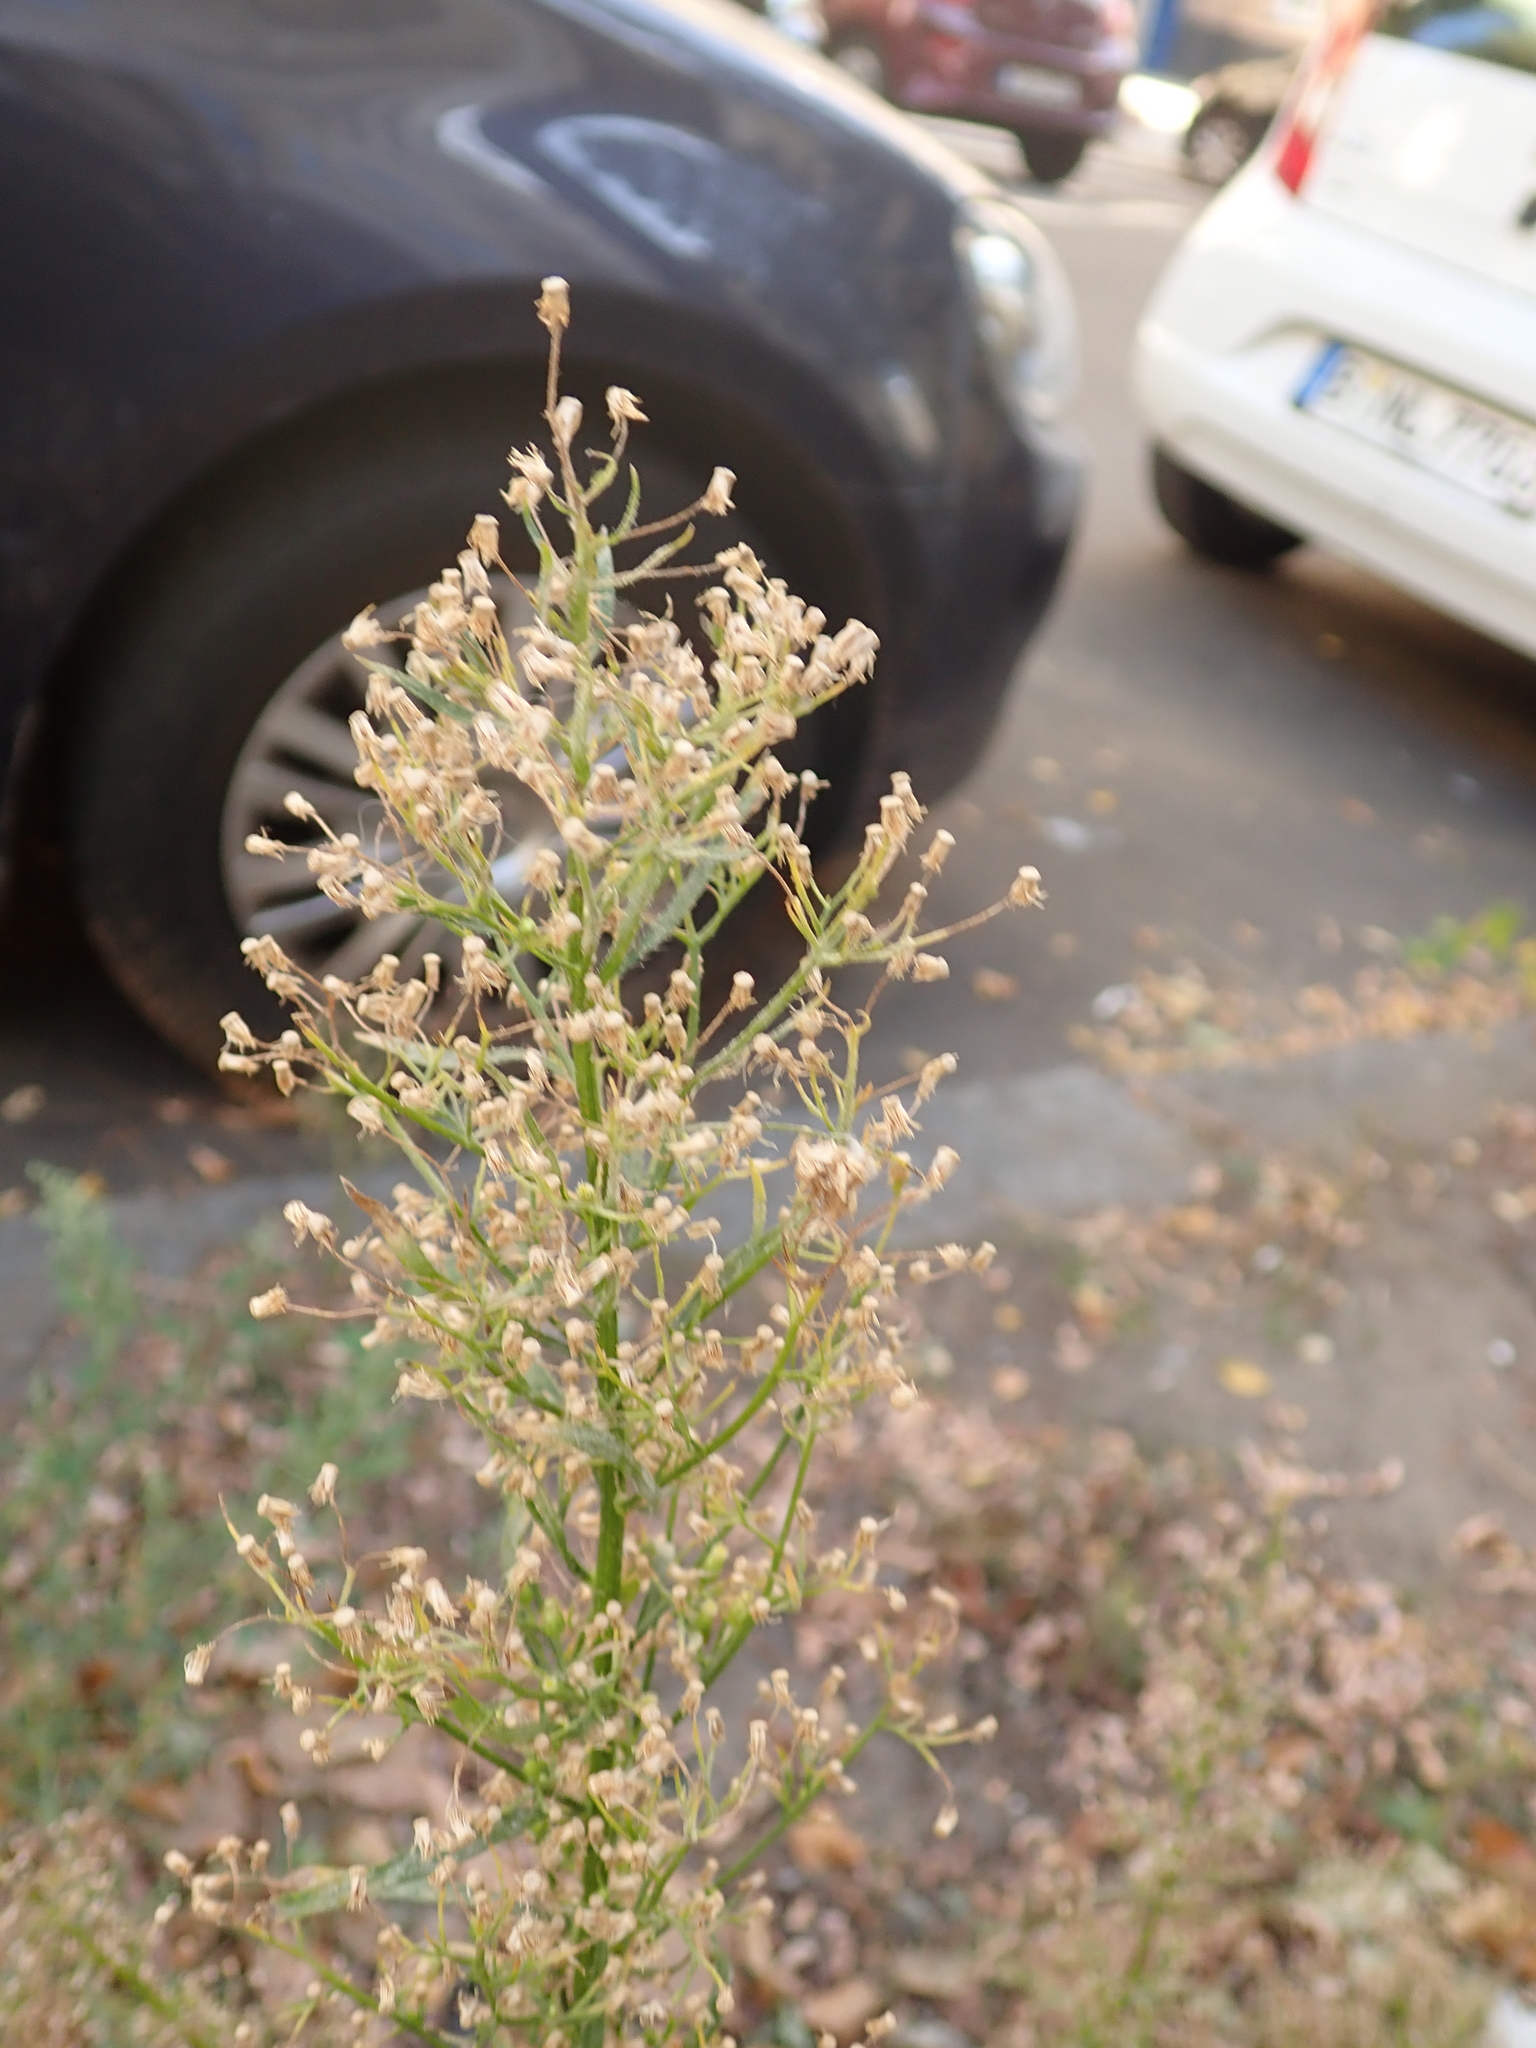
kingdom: Plantae
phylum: Tracheophyta
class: Magnoliopsida
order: Asterales
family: Asteraceae
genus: Erigeron
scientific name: Erigeron canadensis
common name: Canadian fleabane
